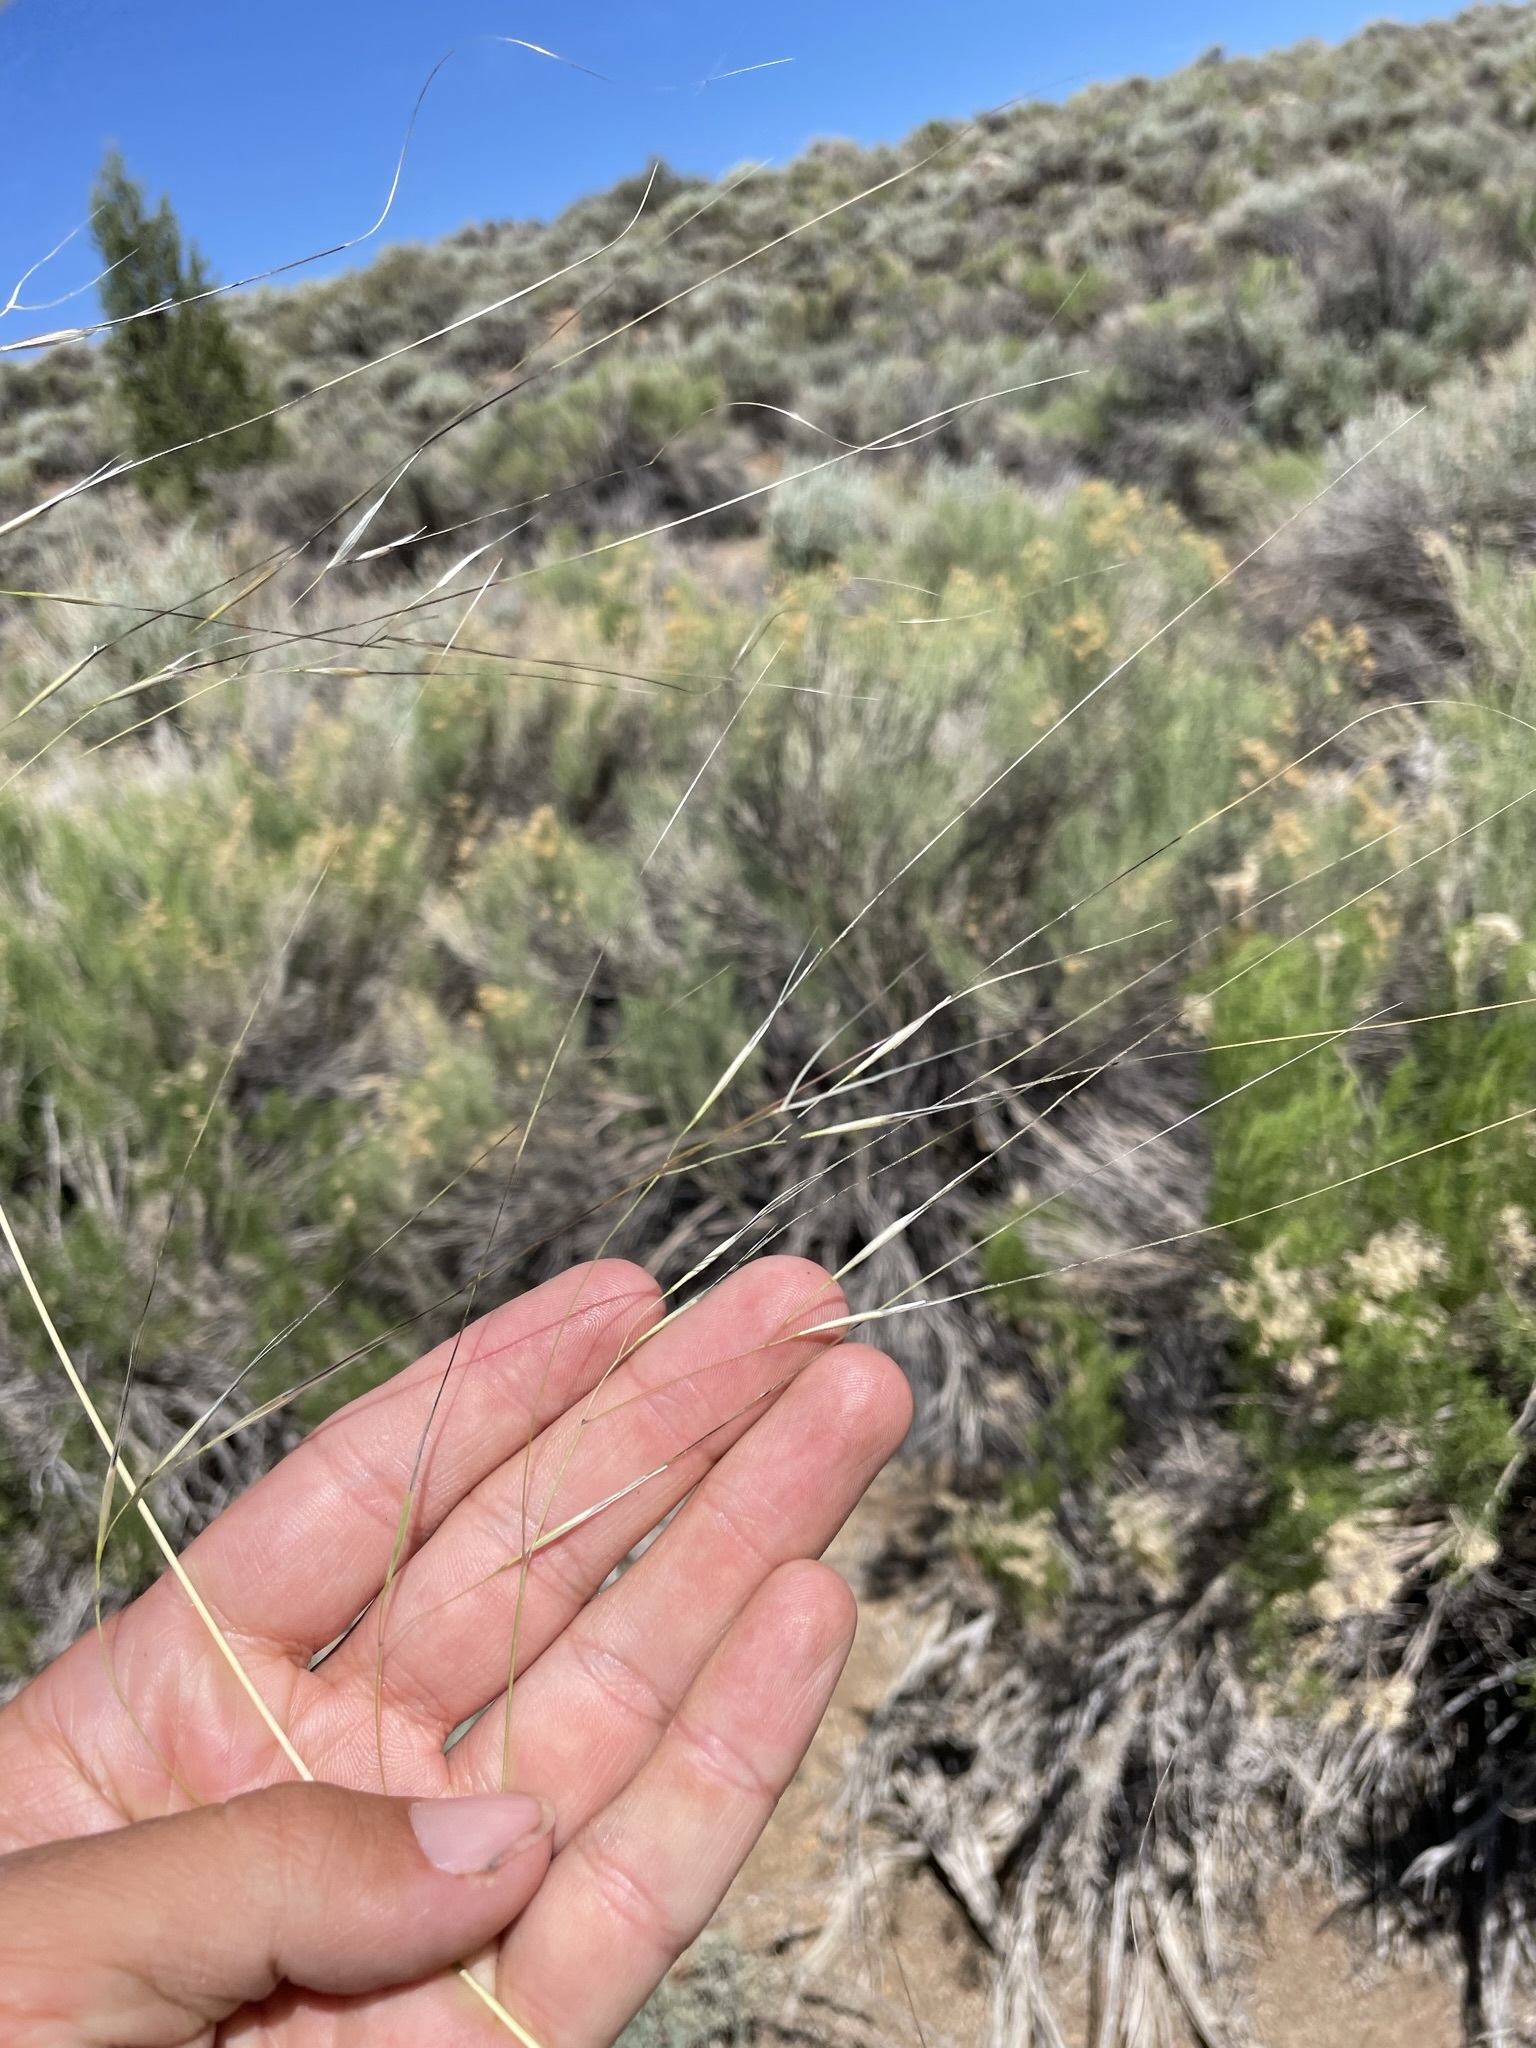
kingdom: Plantae
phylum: Tracheophyta
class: Liliopsida
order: Poales
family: Poaceae
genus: Hesperostipa
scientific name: Hesperostipa comata
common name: Needle-and-thread grass
